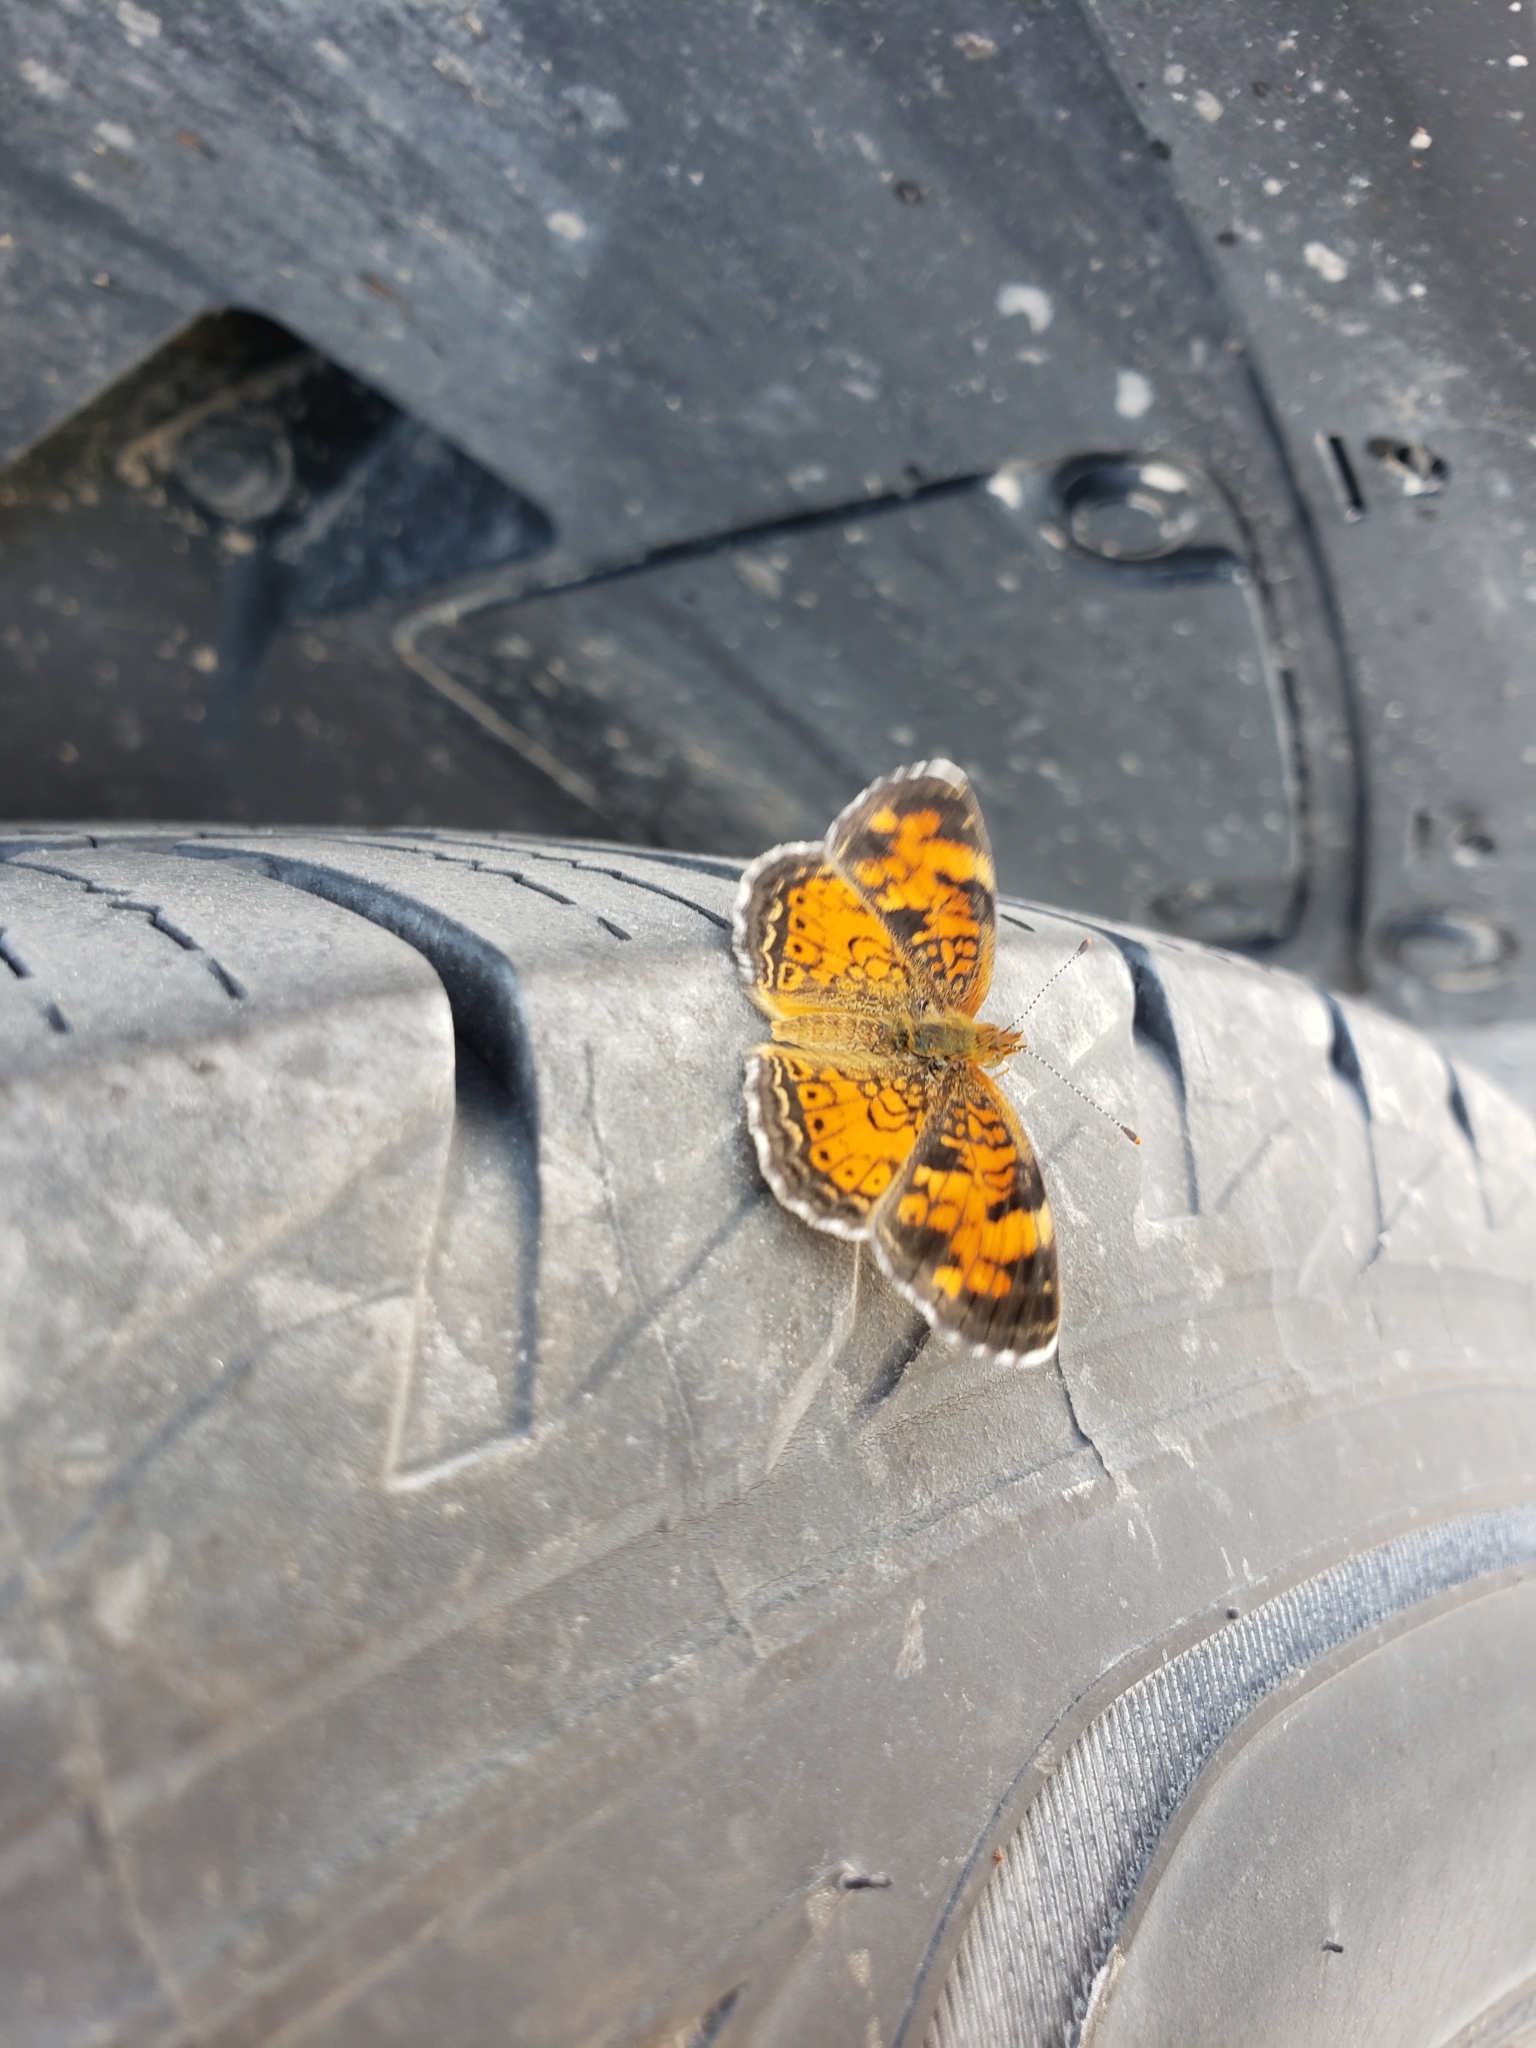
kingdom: Animalia
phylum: Arthropoda
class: Insecta
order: Lepidoptera
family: Nymphalidae
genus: Phyciodes
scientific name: Phyciodes tharos
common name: Pearl crescent
